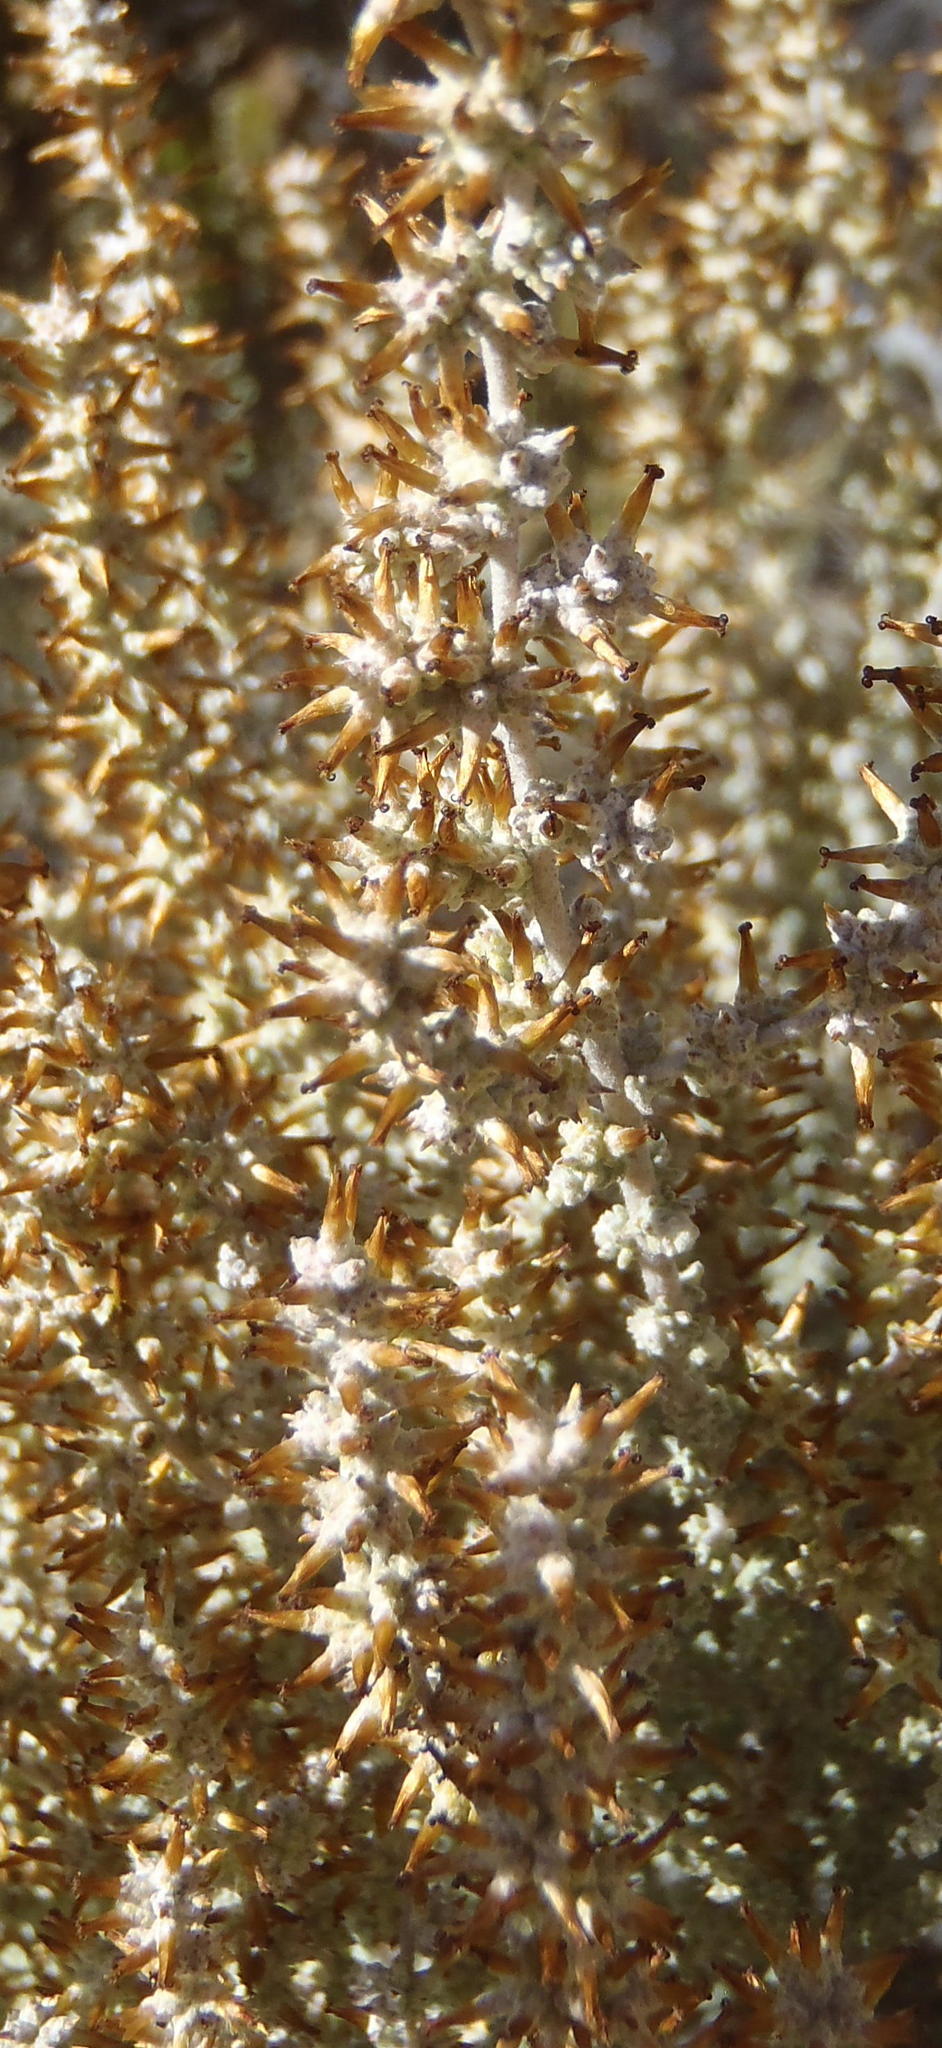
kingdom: Plantae
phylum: Tracheophyta
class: Magnoliopsida
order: Asterales
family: Asteraceae
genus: Seriphium
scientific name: Seriphium plumosum
